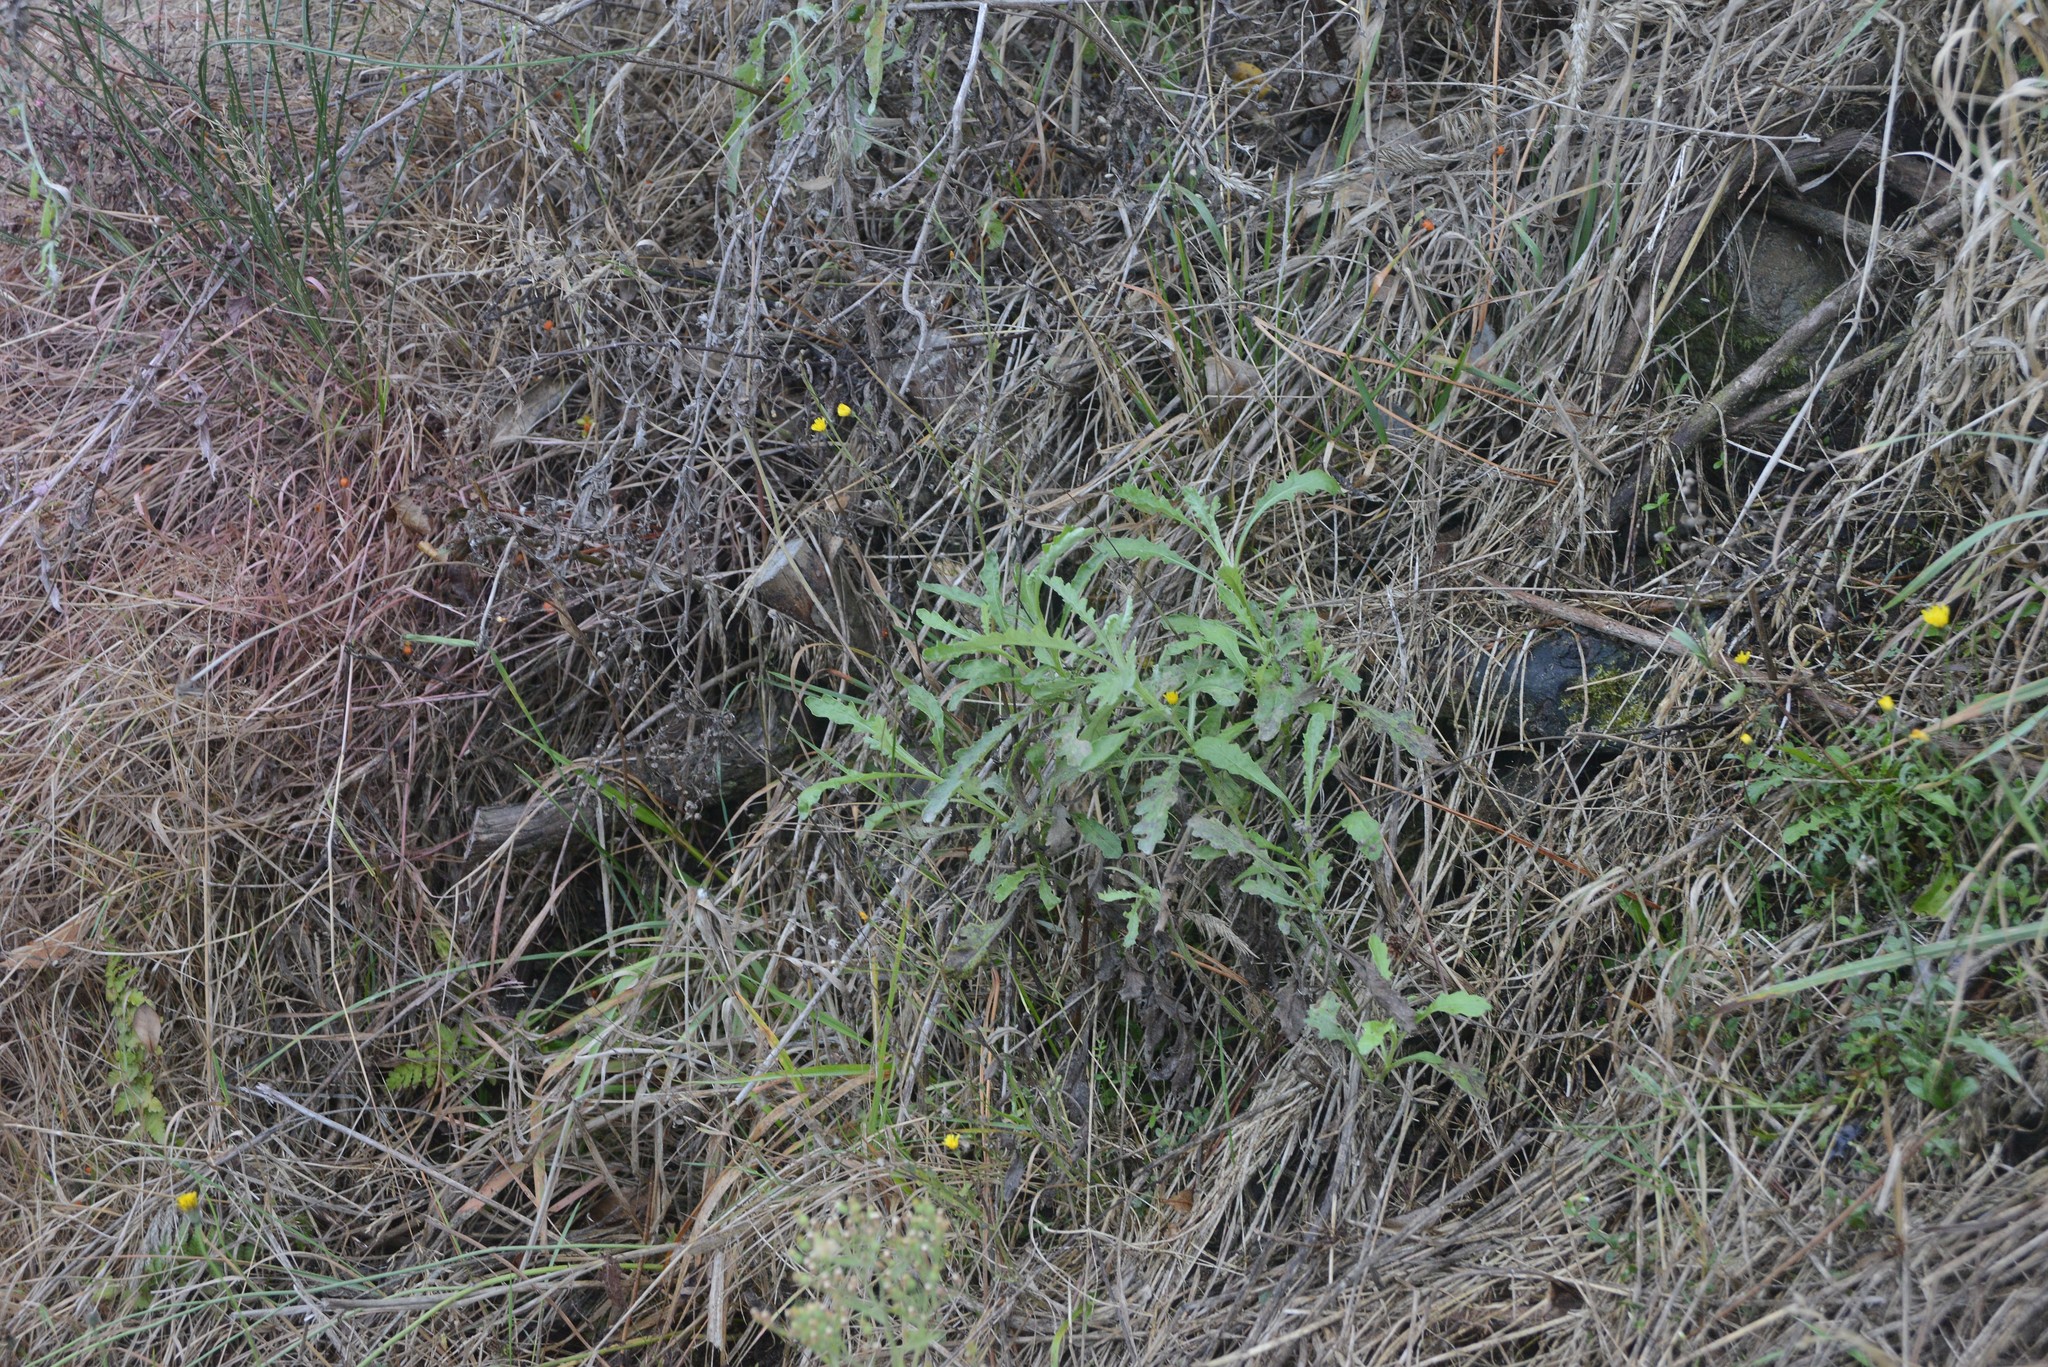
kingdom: Plantae
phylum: Tracheophyta
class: Magnoliopsida
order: Asterales
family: Asteraceae
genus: Senecio
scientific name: Senecio glomeratus
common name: Cutleaf burnweed
